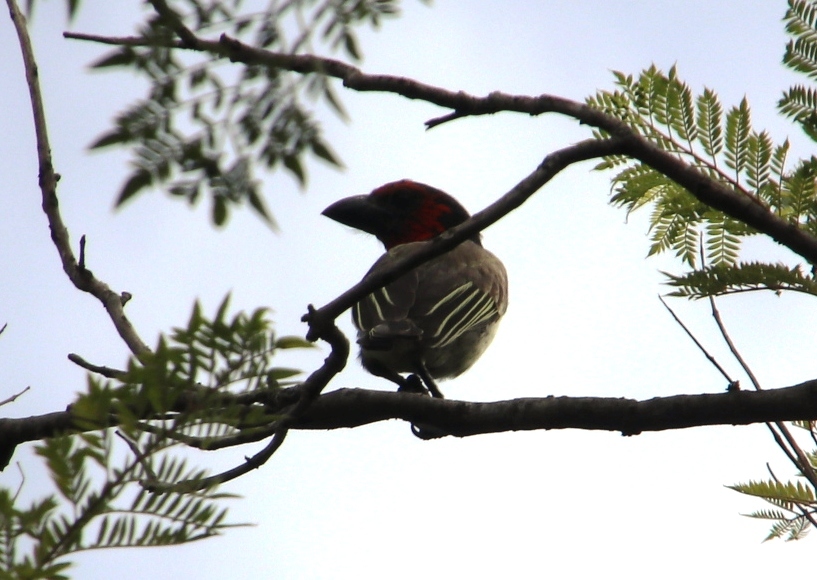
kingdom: Animalia
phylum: Chordata
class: Aves
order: Piciformes
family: Lybiidae
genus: Lybius
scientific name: Lybius torquatus
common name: Black-collared barbet
